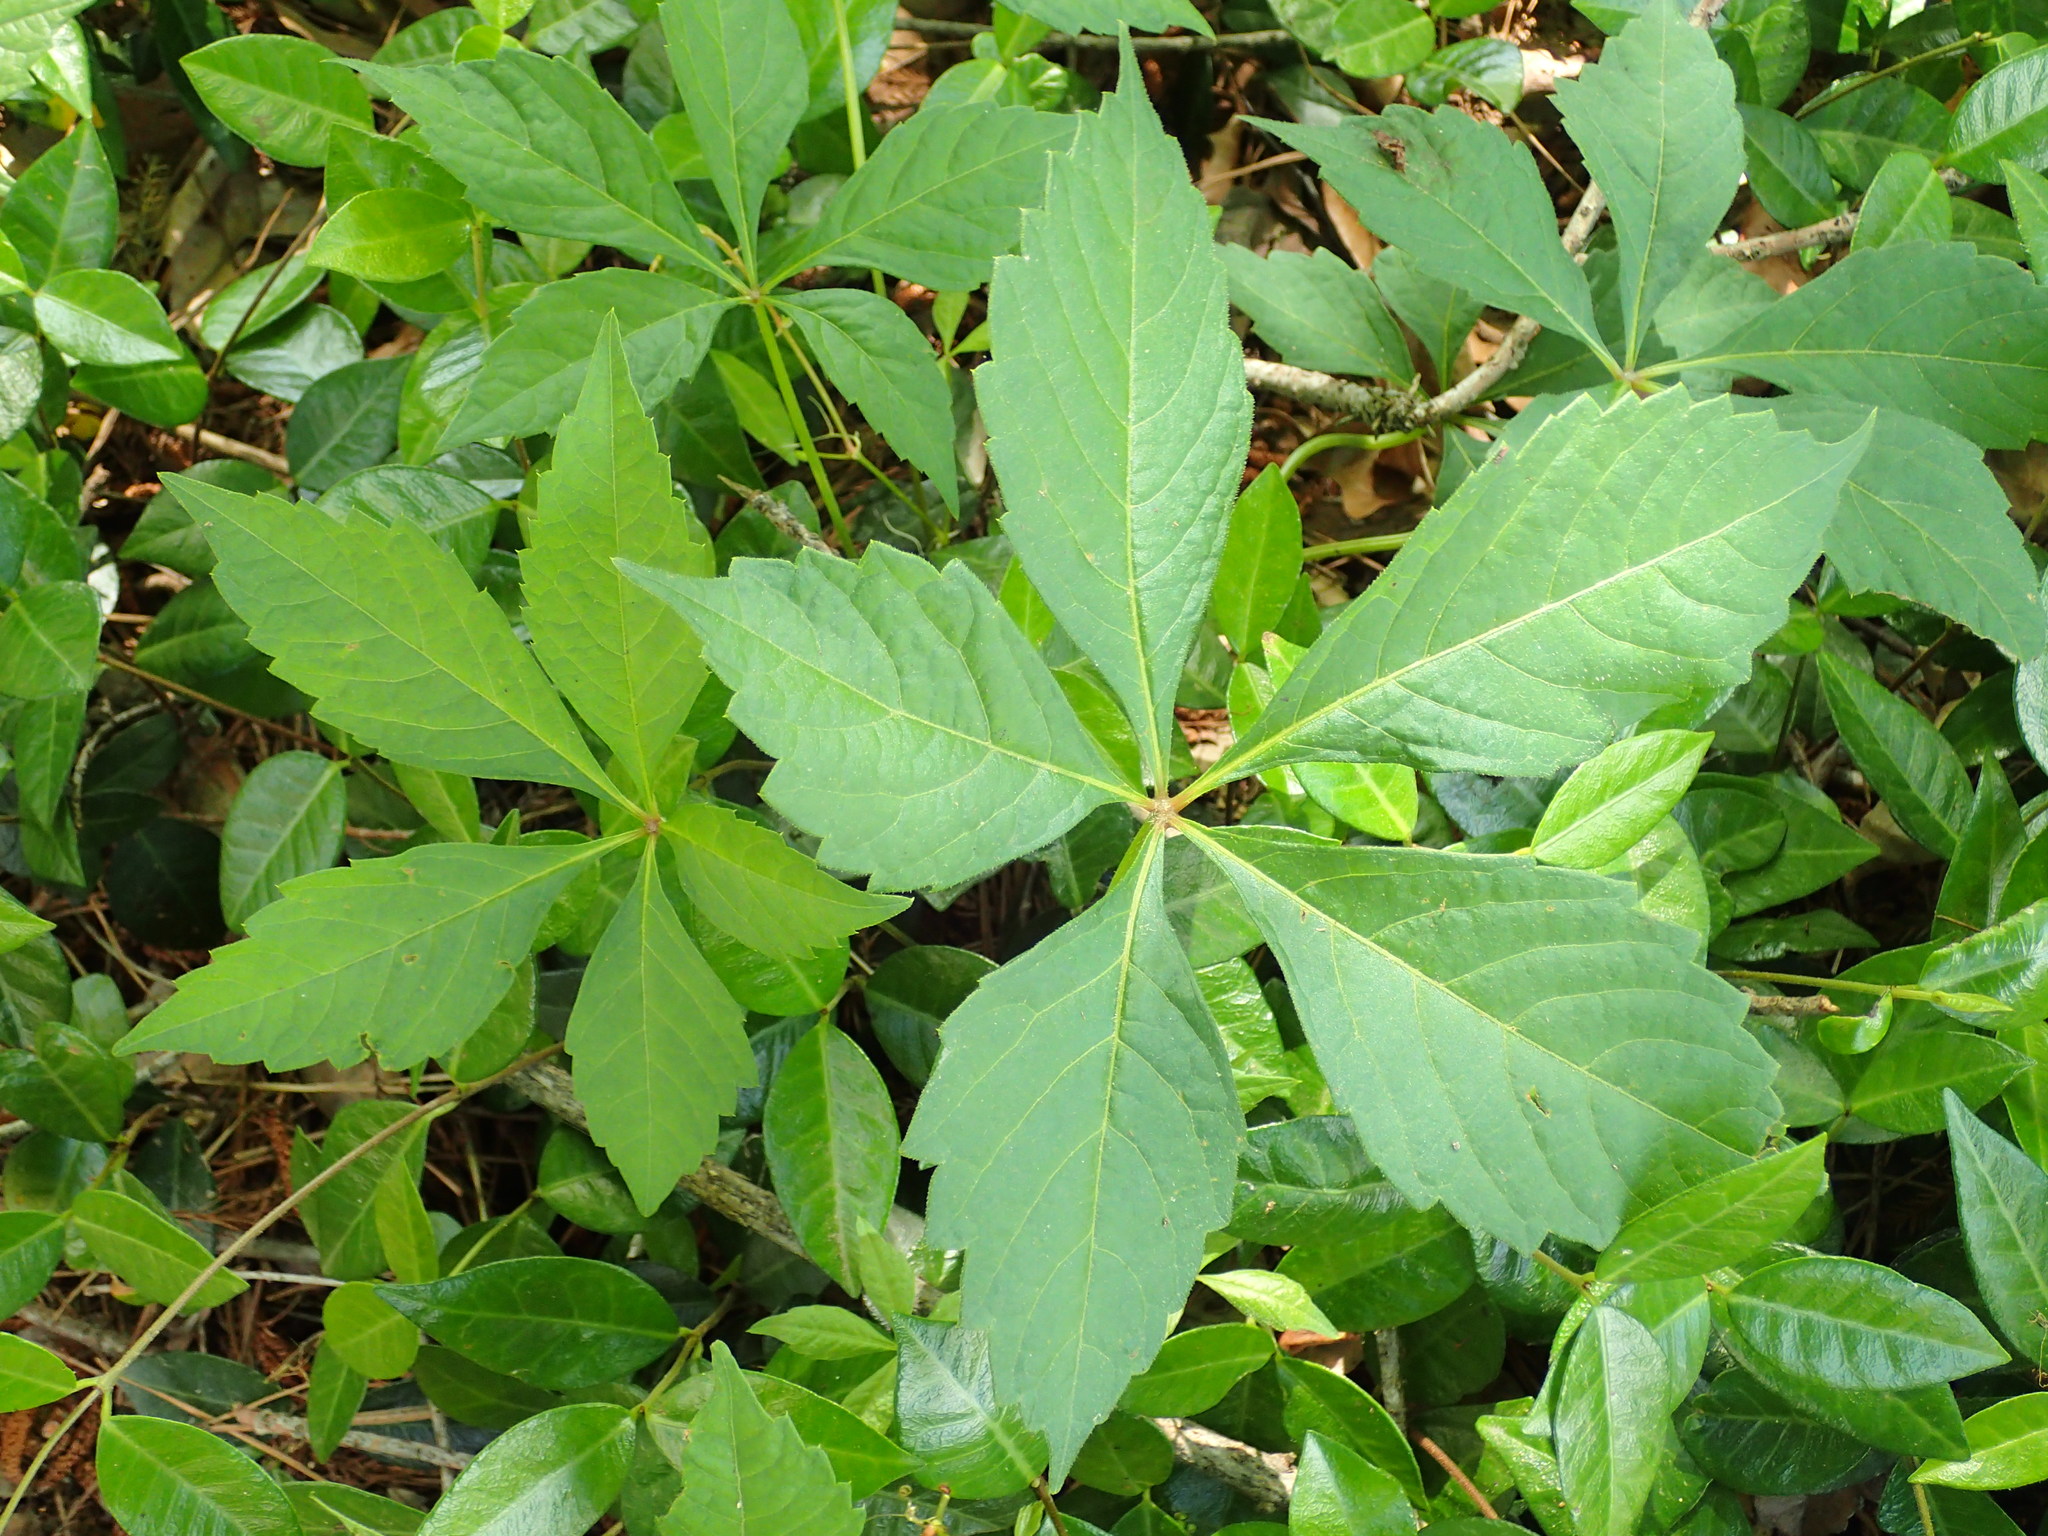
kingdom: Plantae
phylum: Tracheophyta
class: Magnoliopsida
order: Vitales
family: Vitaceae
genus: Parthenocissus
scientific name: Parthenocissus quinquefolia
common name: Virginia-creeper
